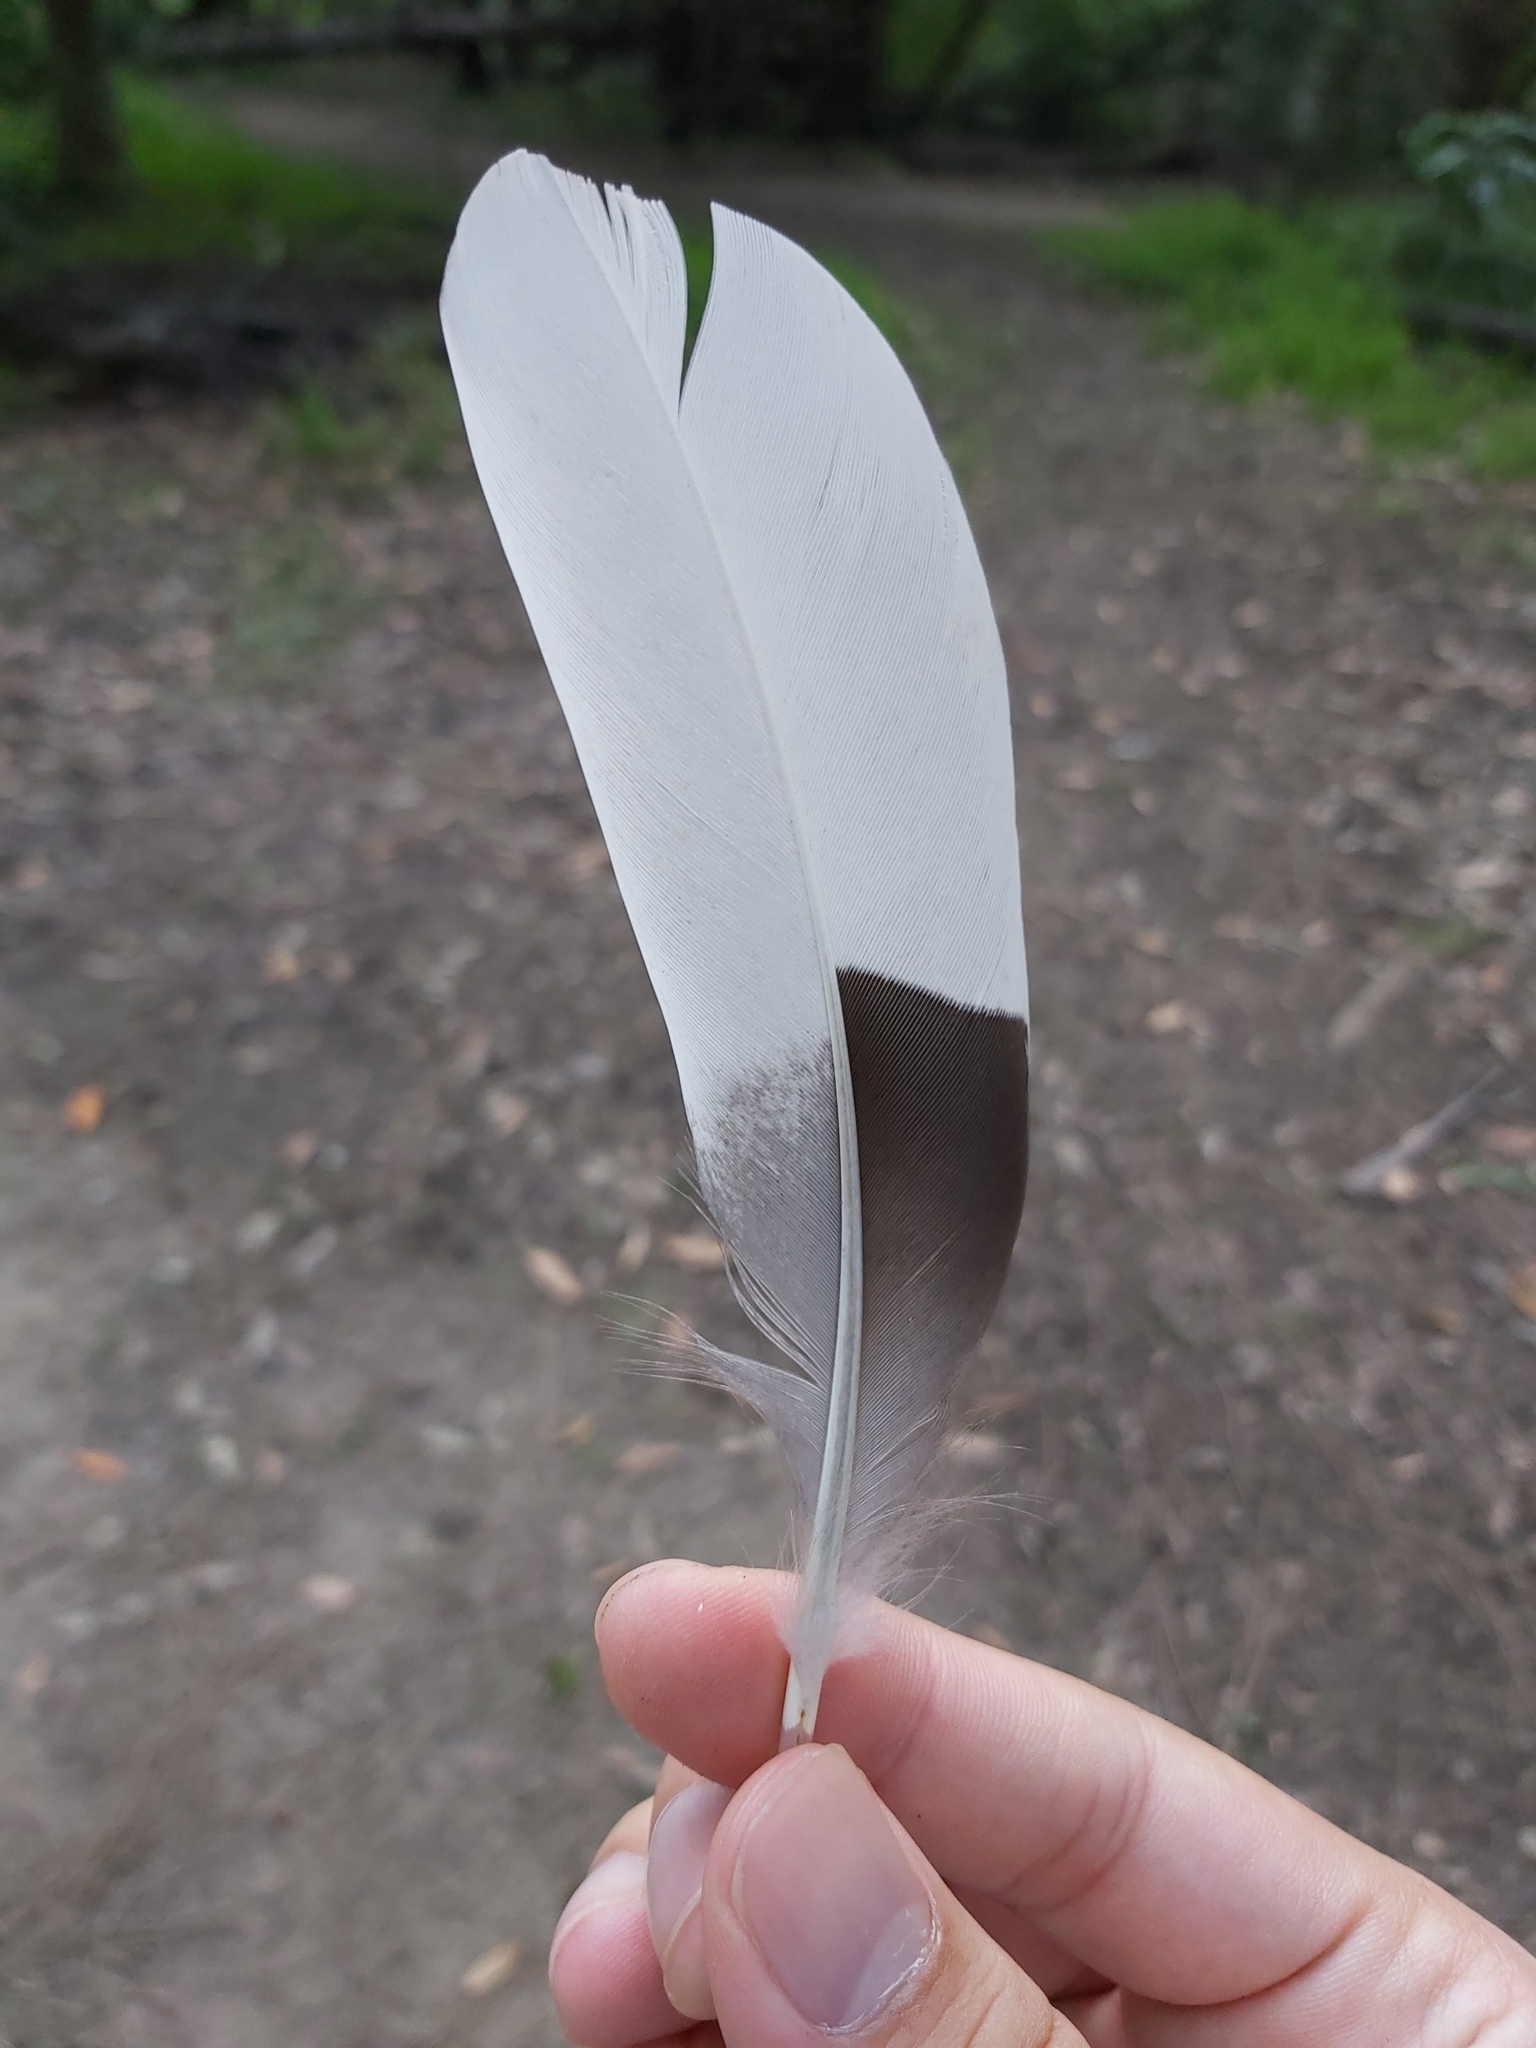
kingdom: Animalia
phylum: Chordata
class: Aves
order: Anseriformes
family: Anatidae
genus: Chenonetta
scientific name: Chenonetta jubata
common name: Maned duck
